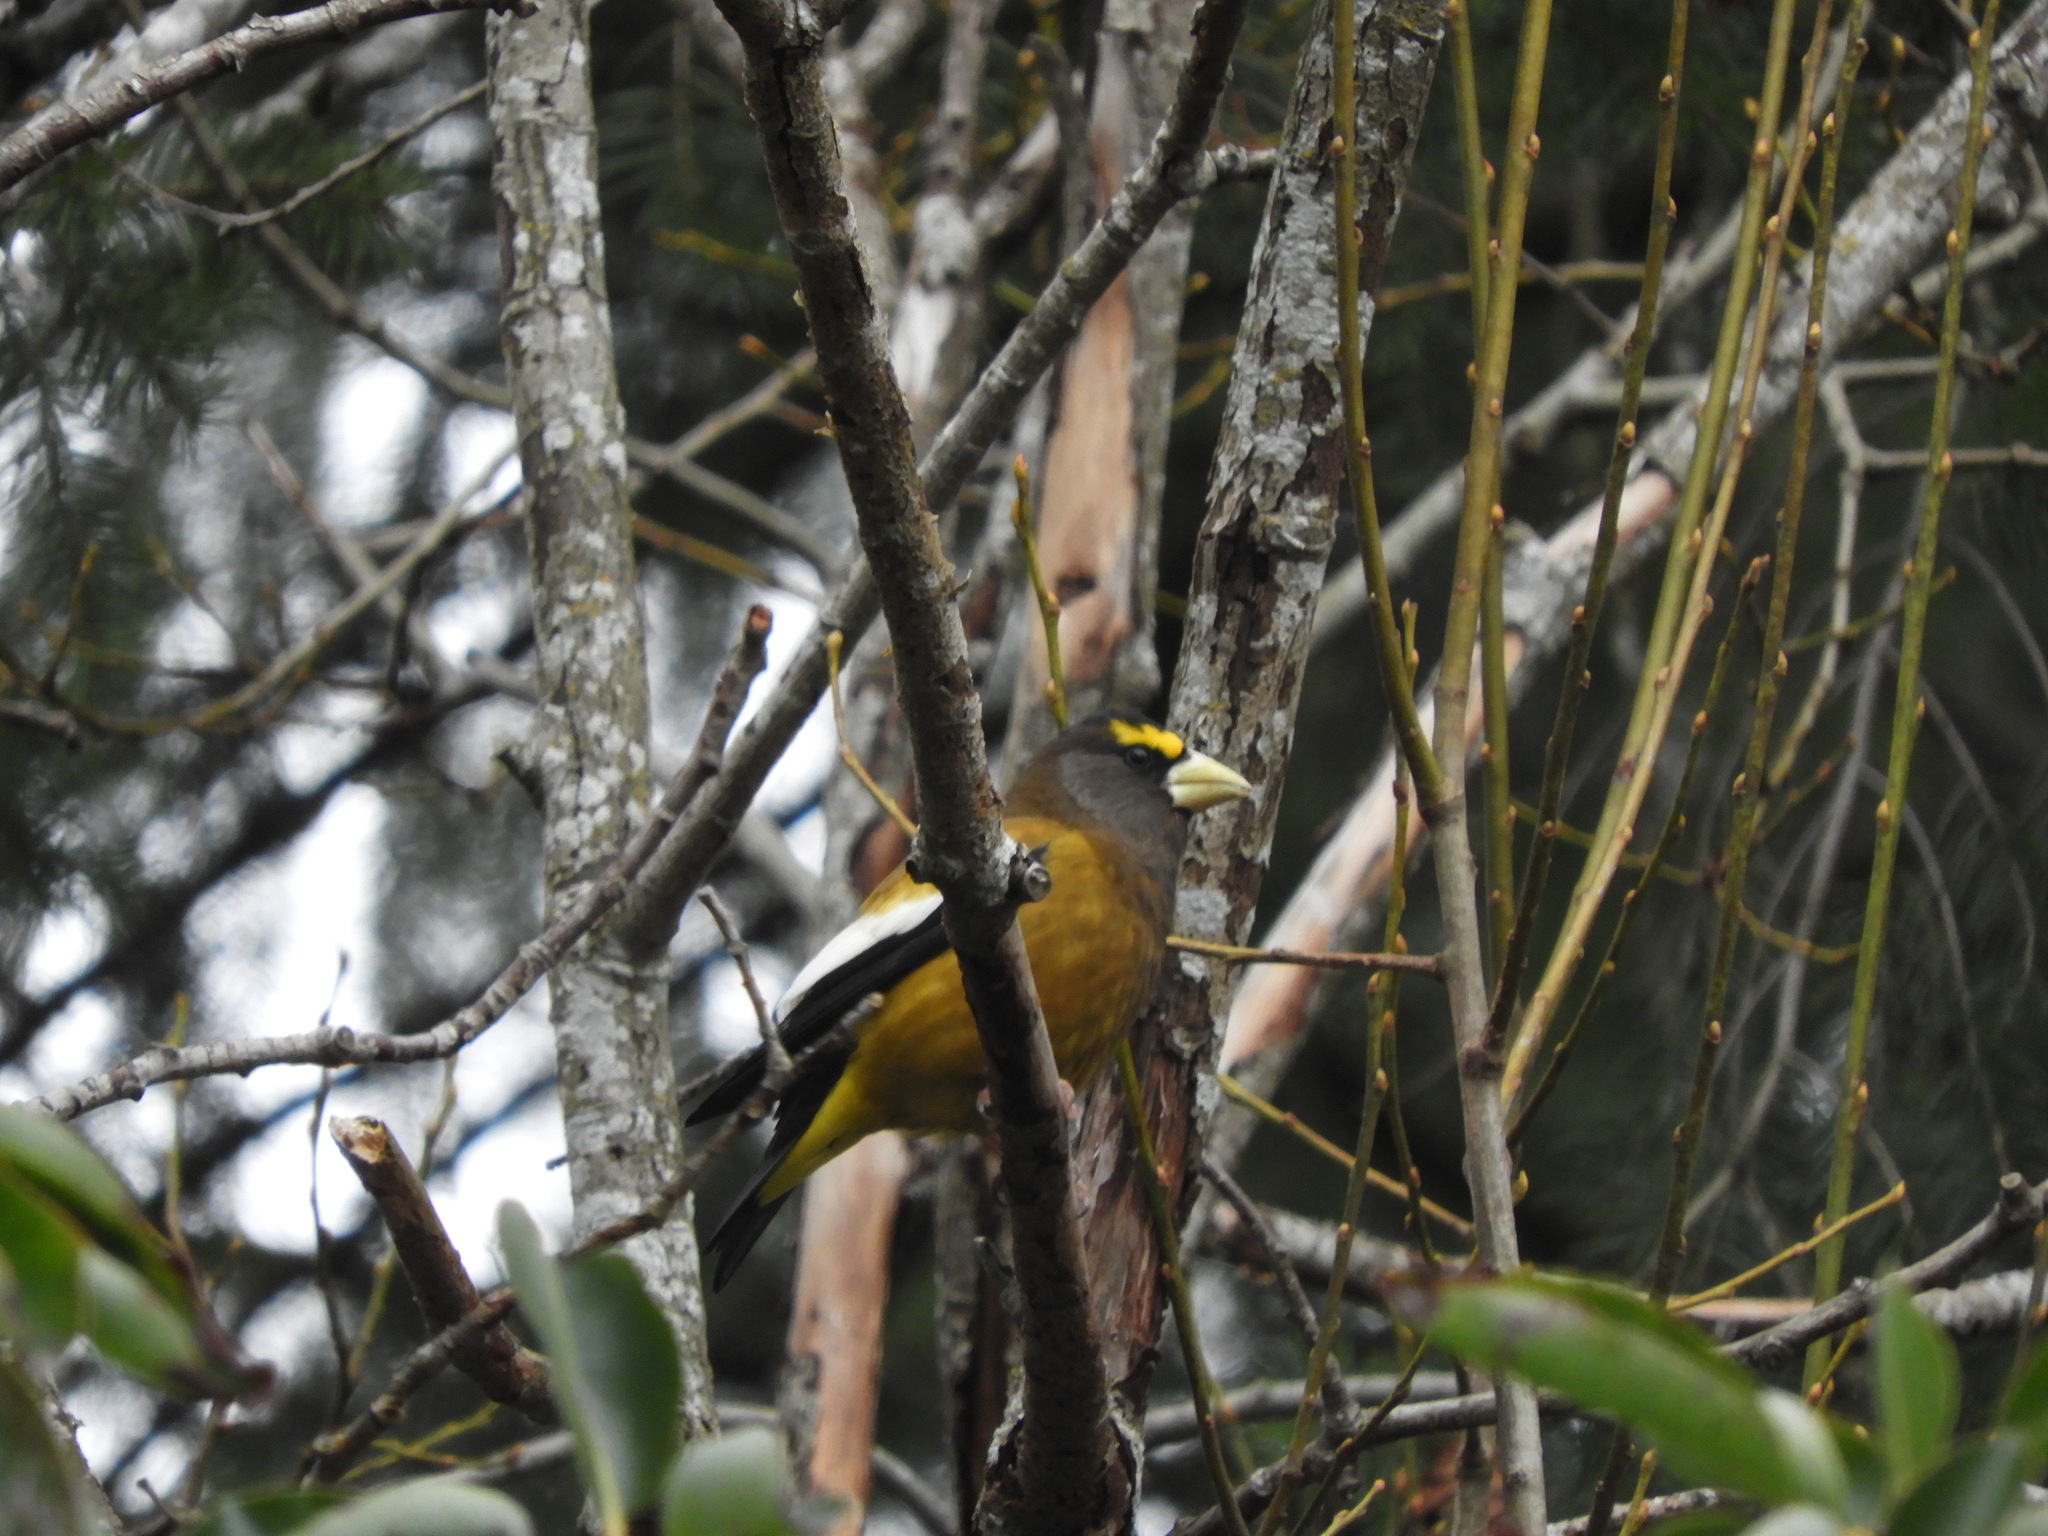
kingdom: Animalia
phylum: Chordata
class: Aves
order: Passeriformes
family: Fringillidae
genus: Hesperiphona
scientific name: Hesperiphona vespertina
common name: Evening grosbeak
